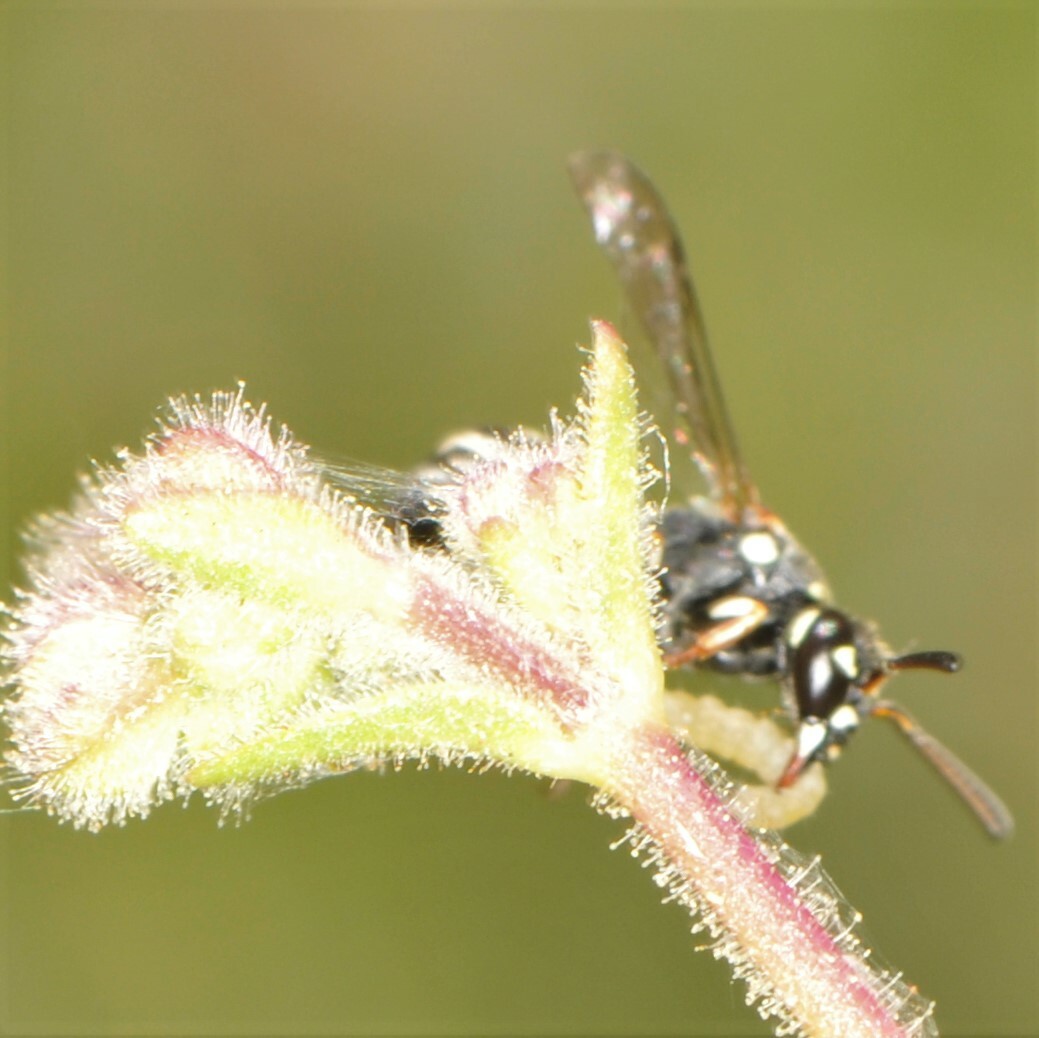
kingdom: Animalia
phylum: Arthropoda
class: Insecta
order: Hymenoptera
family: Eumenidae
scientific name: Eumenidae
